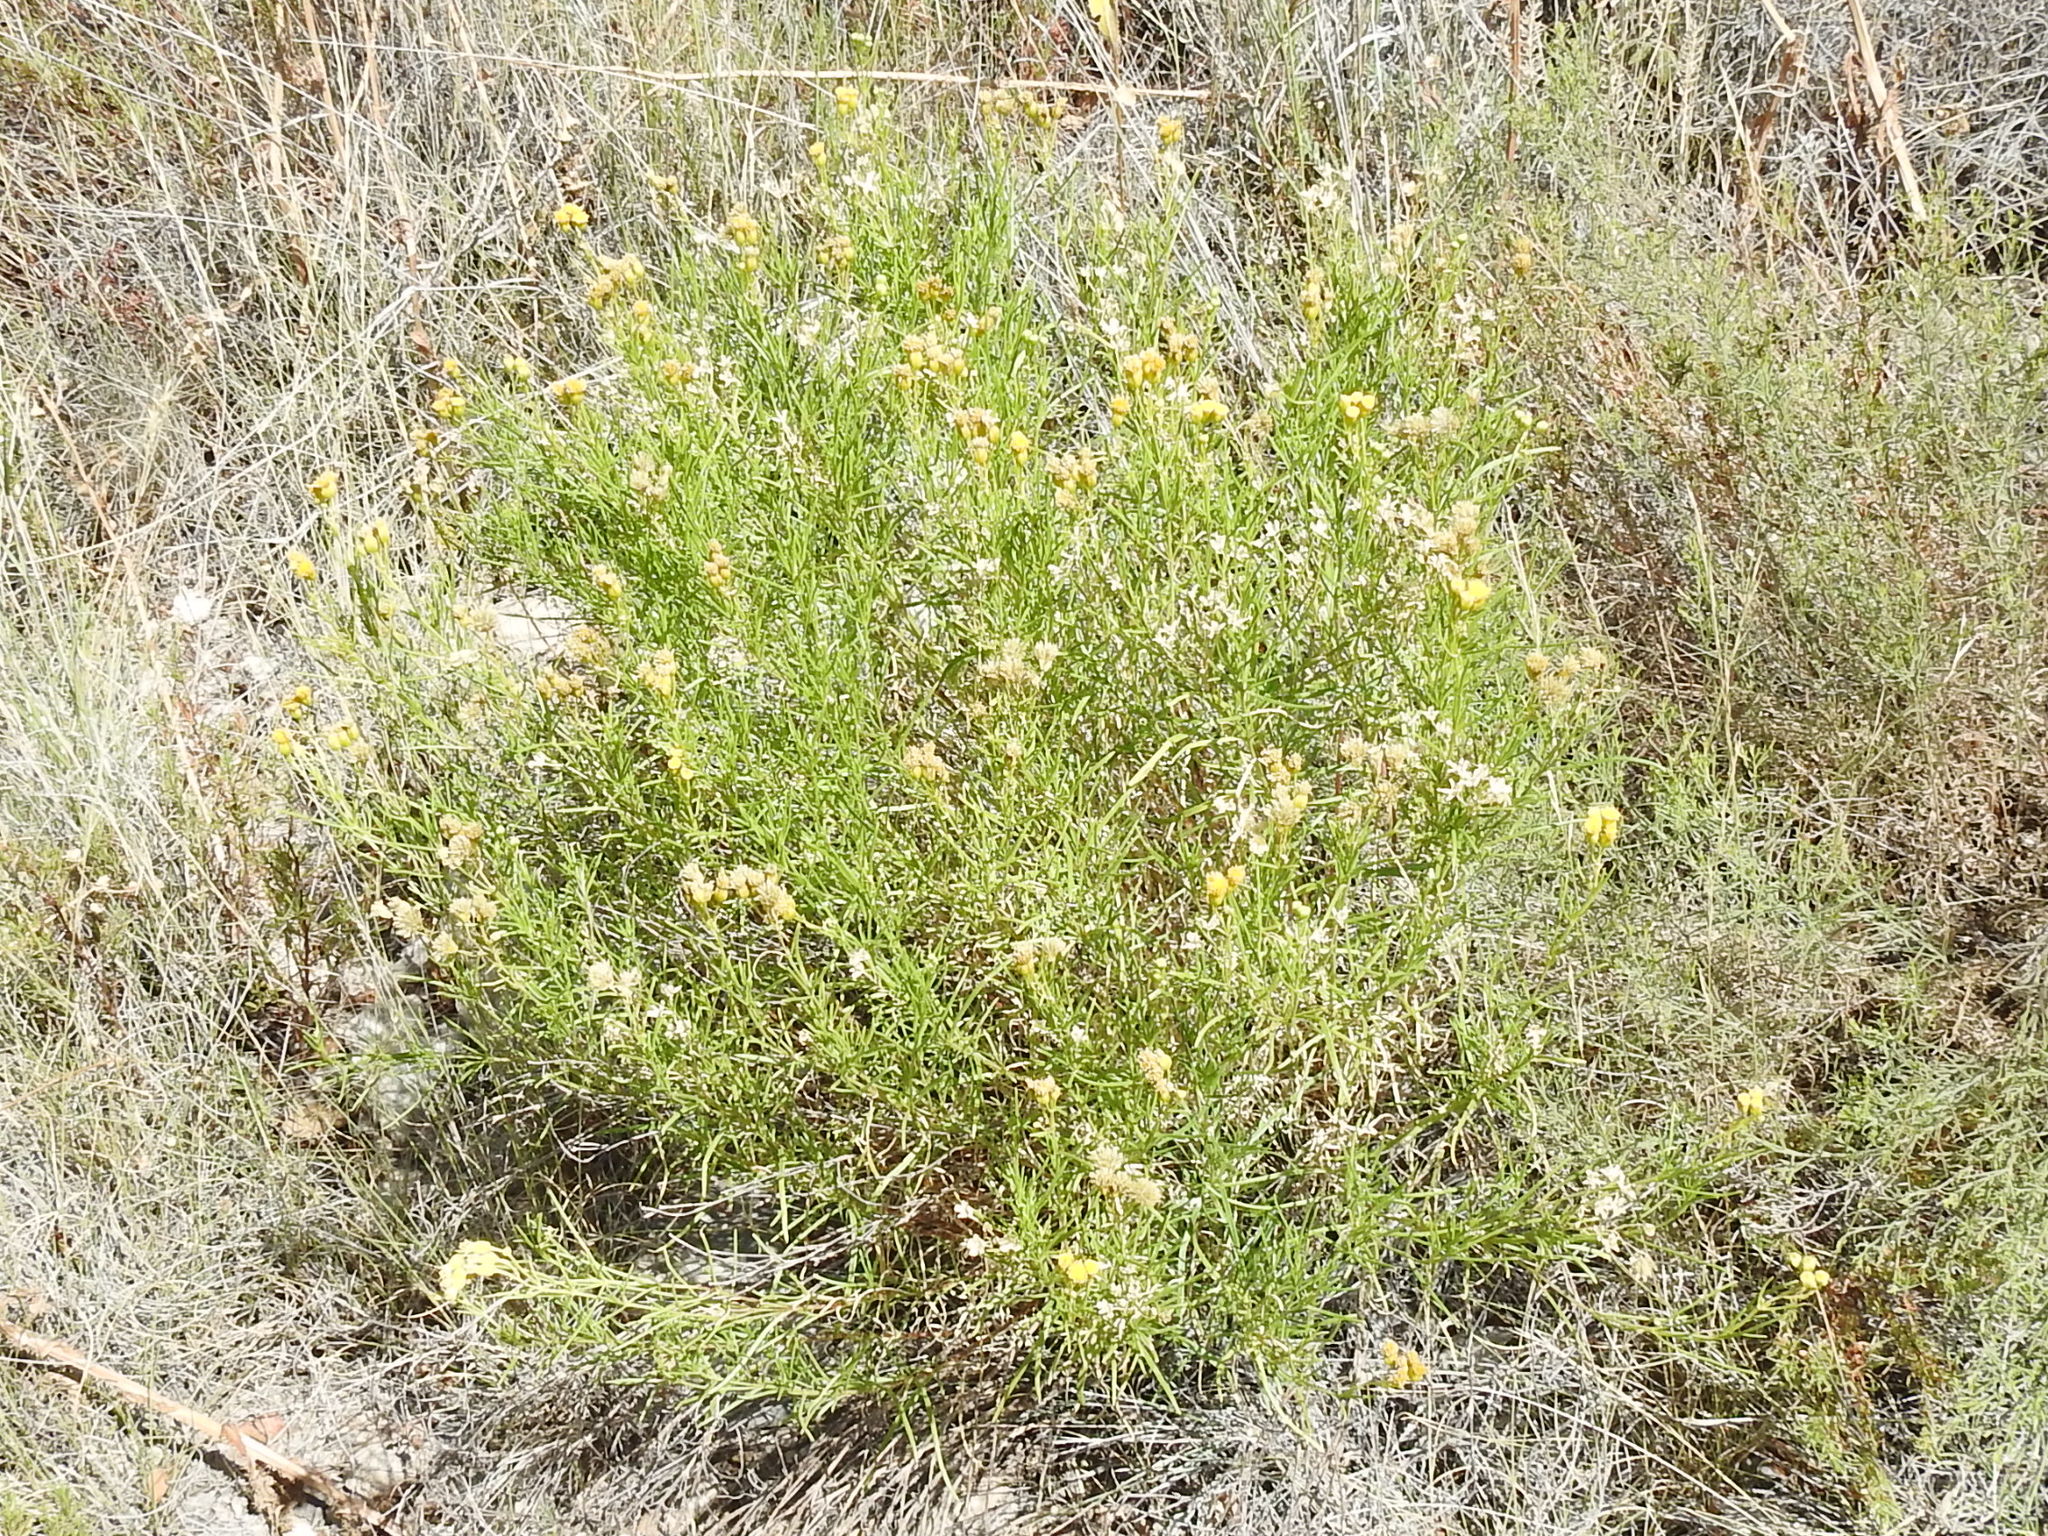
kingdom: Plantae
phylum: Tracheophyta
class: Magnoliopsida
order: Asterales
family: Asteraceae
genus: Haploesthes
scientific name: Haploesthes greggii
